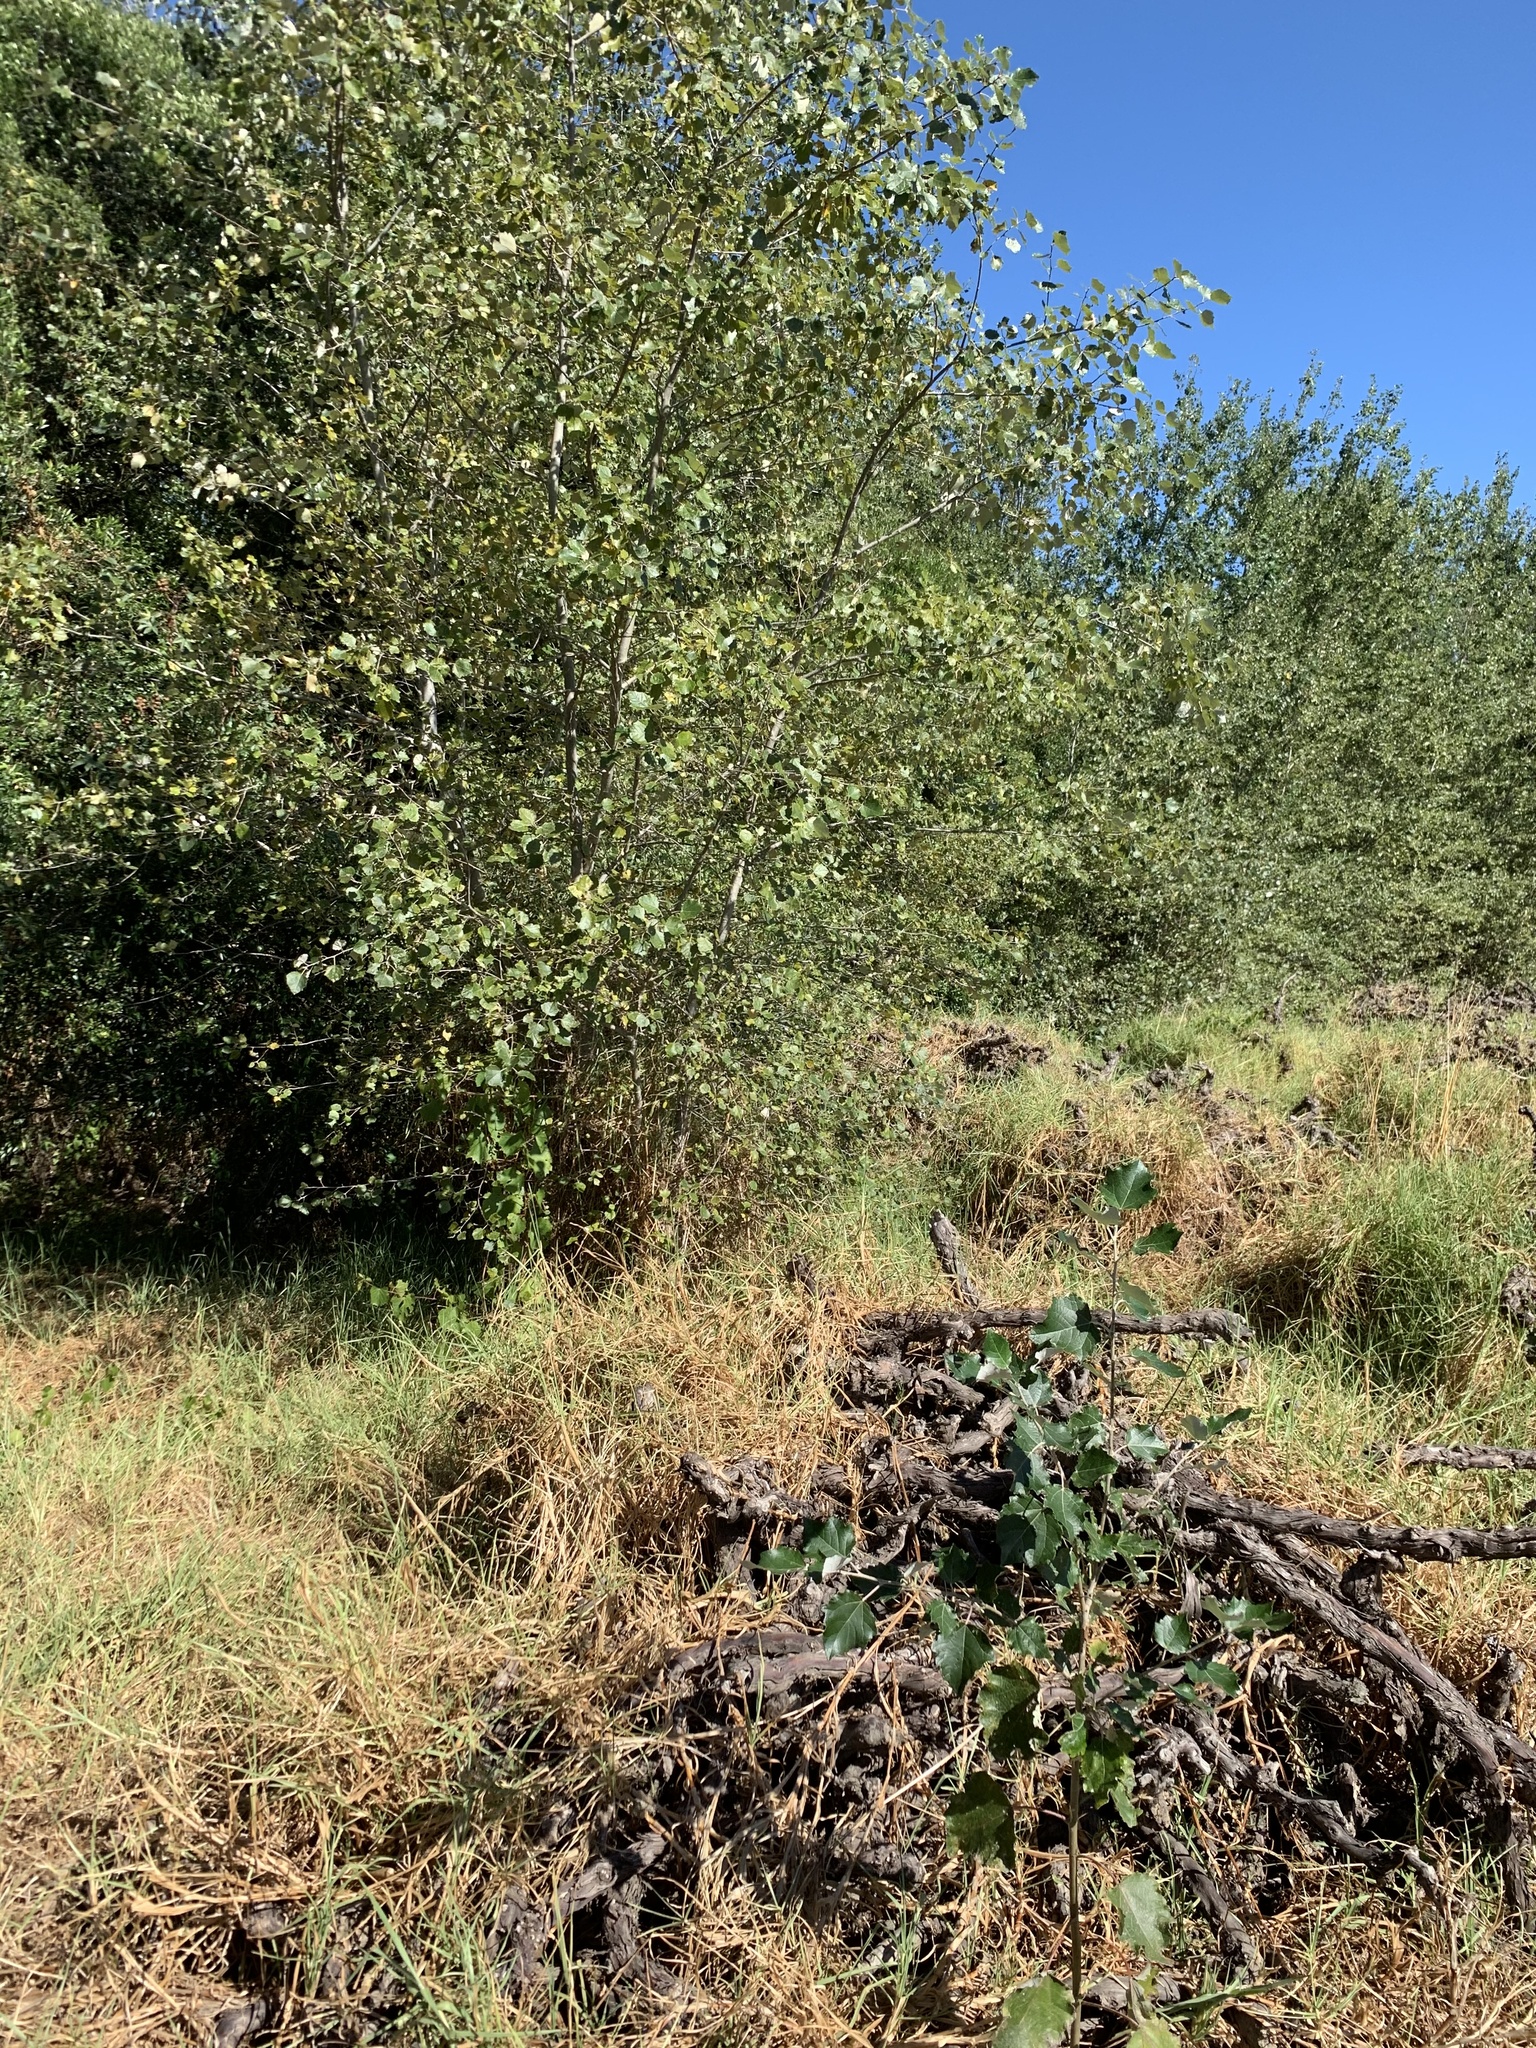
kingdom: Plantae
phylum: Tracheophyta
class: Magnoliopsida
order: Malpighiales
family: Salicaceae
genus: Populus
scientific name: Populus canescens
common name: Gray poplar
